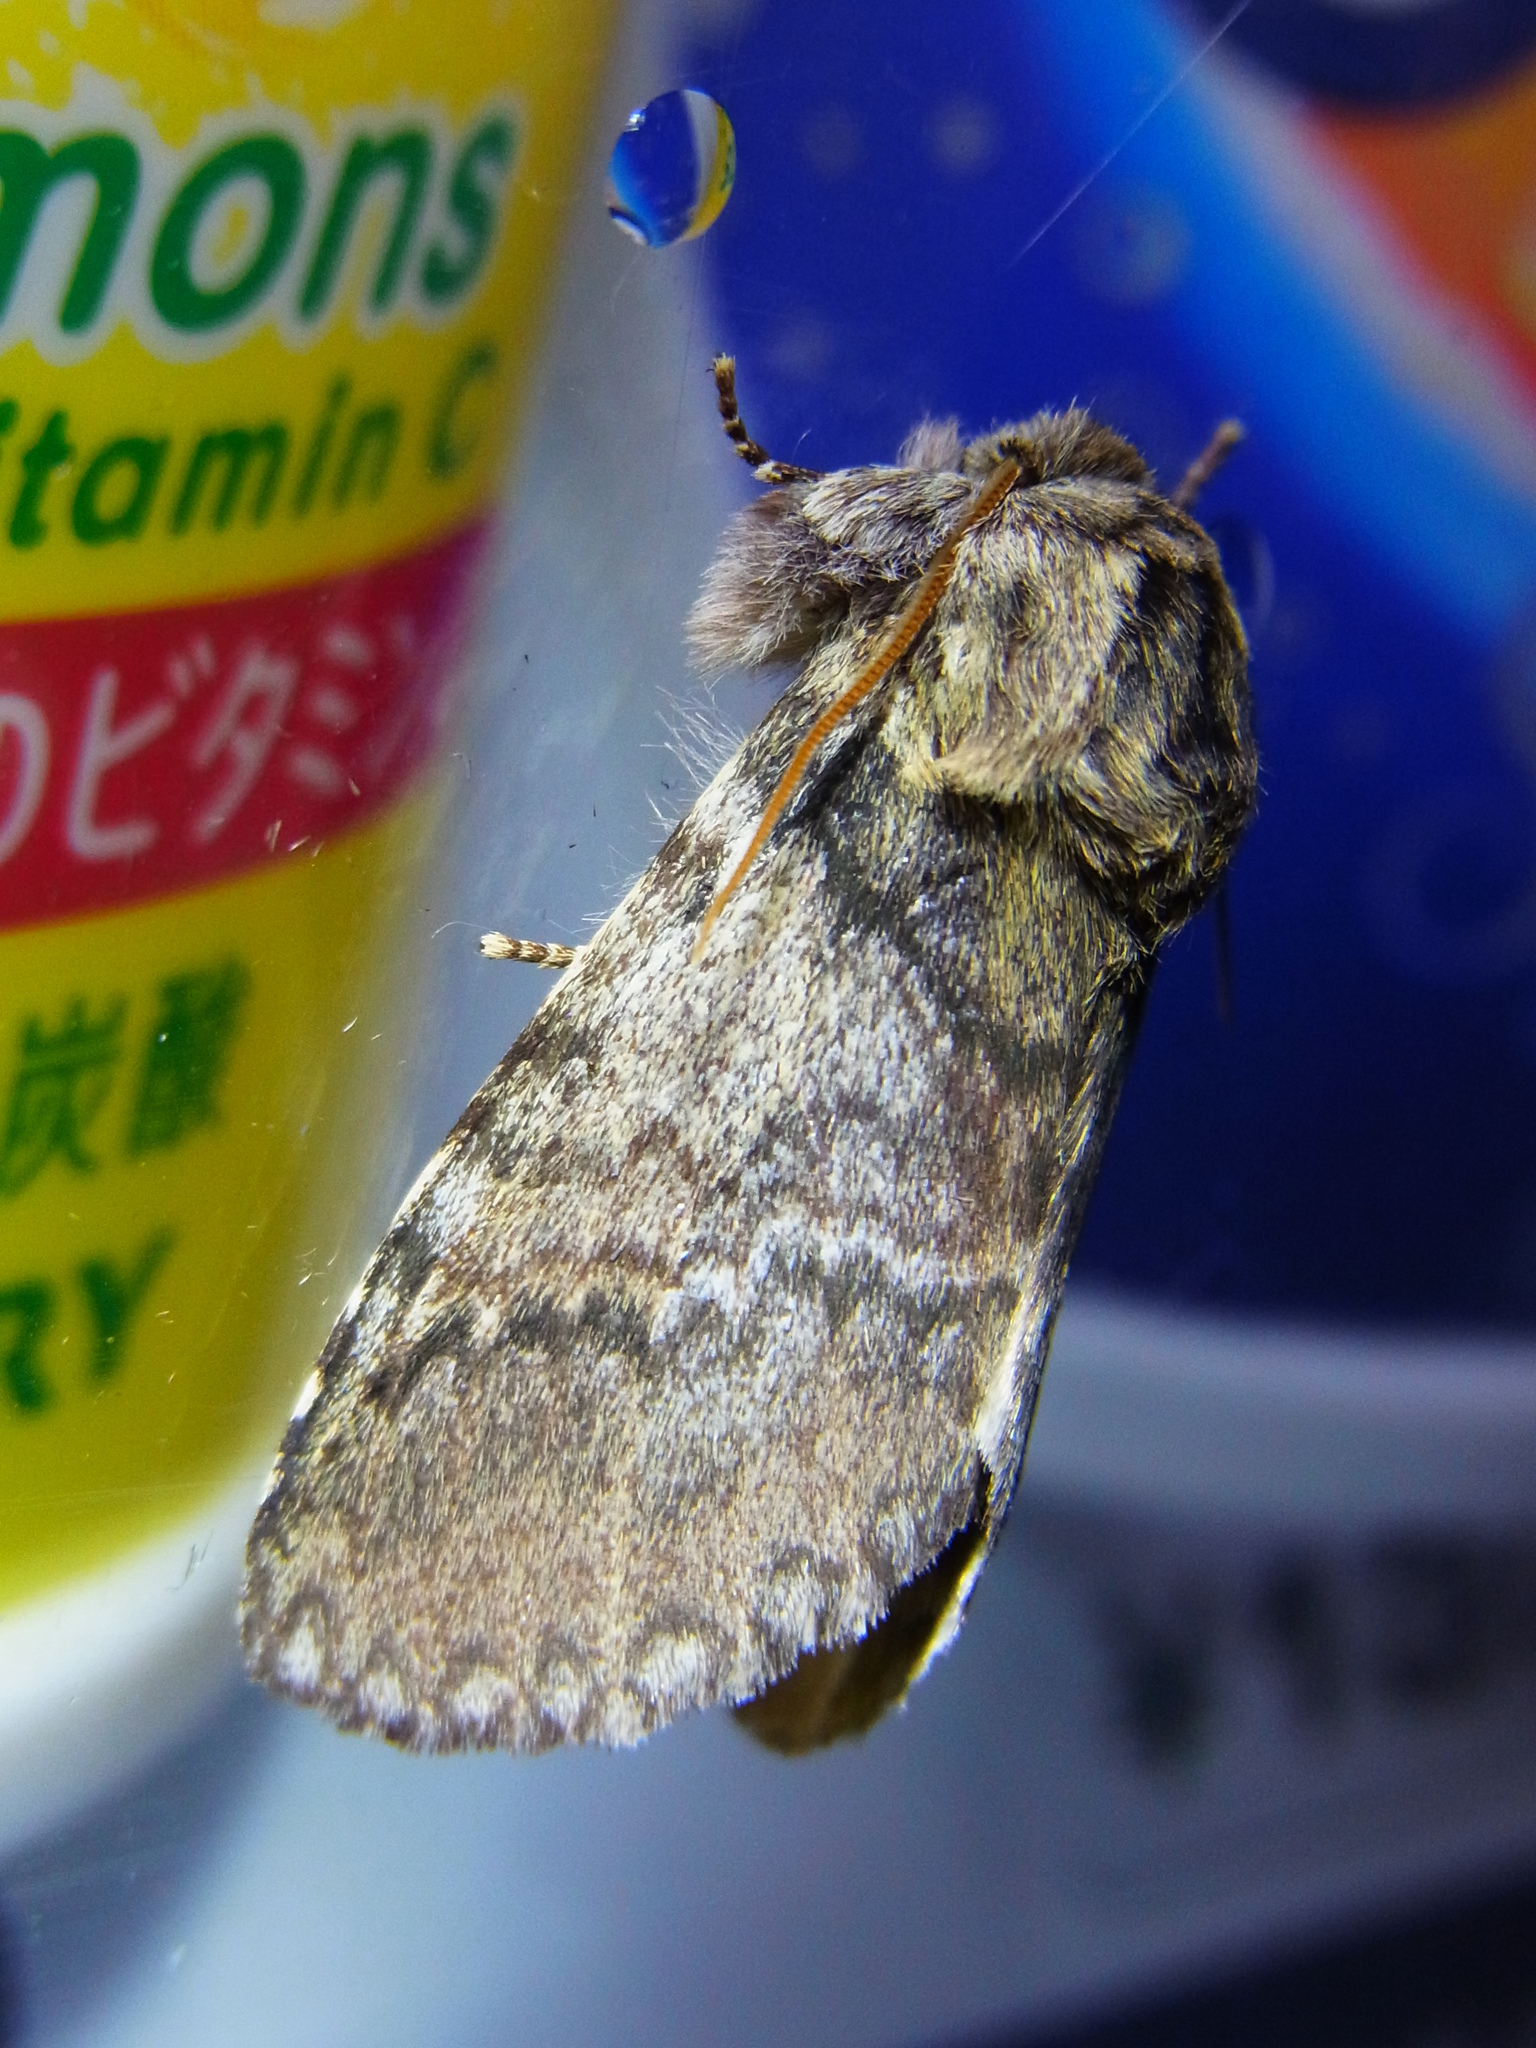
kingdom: Animalia
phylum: Arthropoda
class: Insecta
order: Lepidoptera
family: Notodontidae
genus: Disparia
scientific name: Disparia diluta
